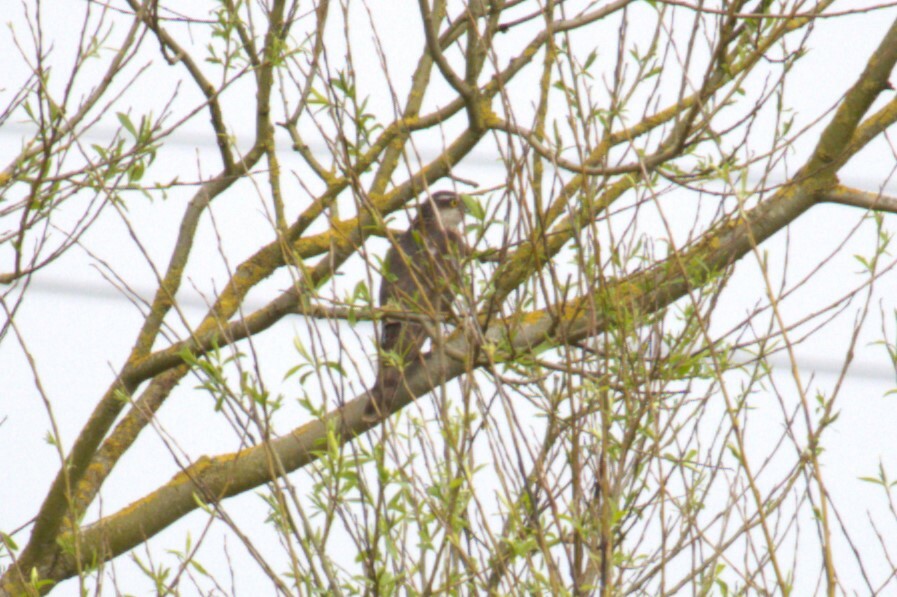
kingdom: Animalia
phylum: Chordata
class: Aves
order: Accipitriformes
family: Accipitridae
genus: Accipiter
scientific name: Accipiter nisus
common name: Eurasian sparrowhawk
